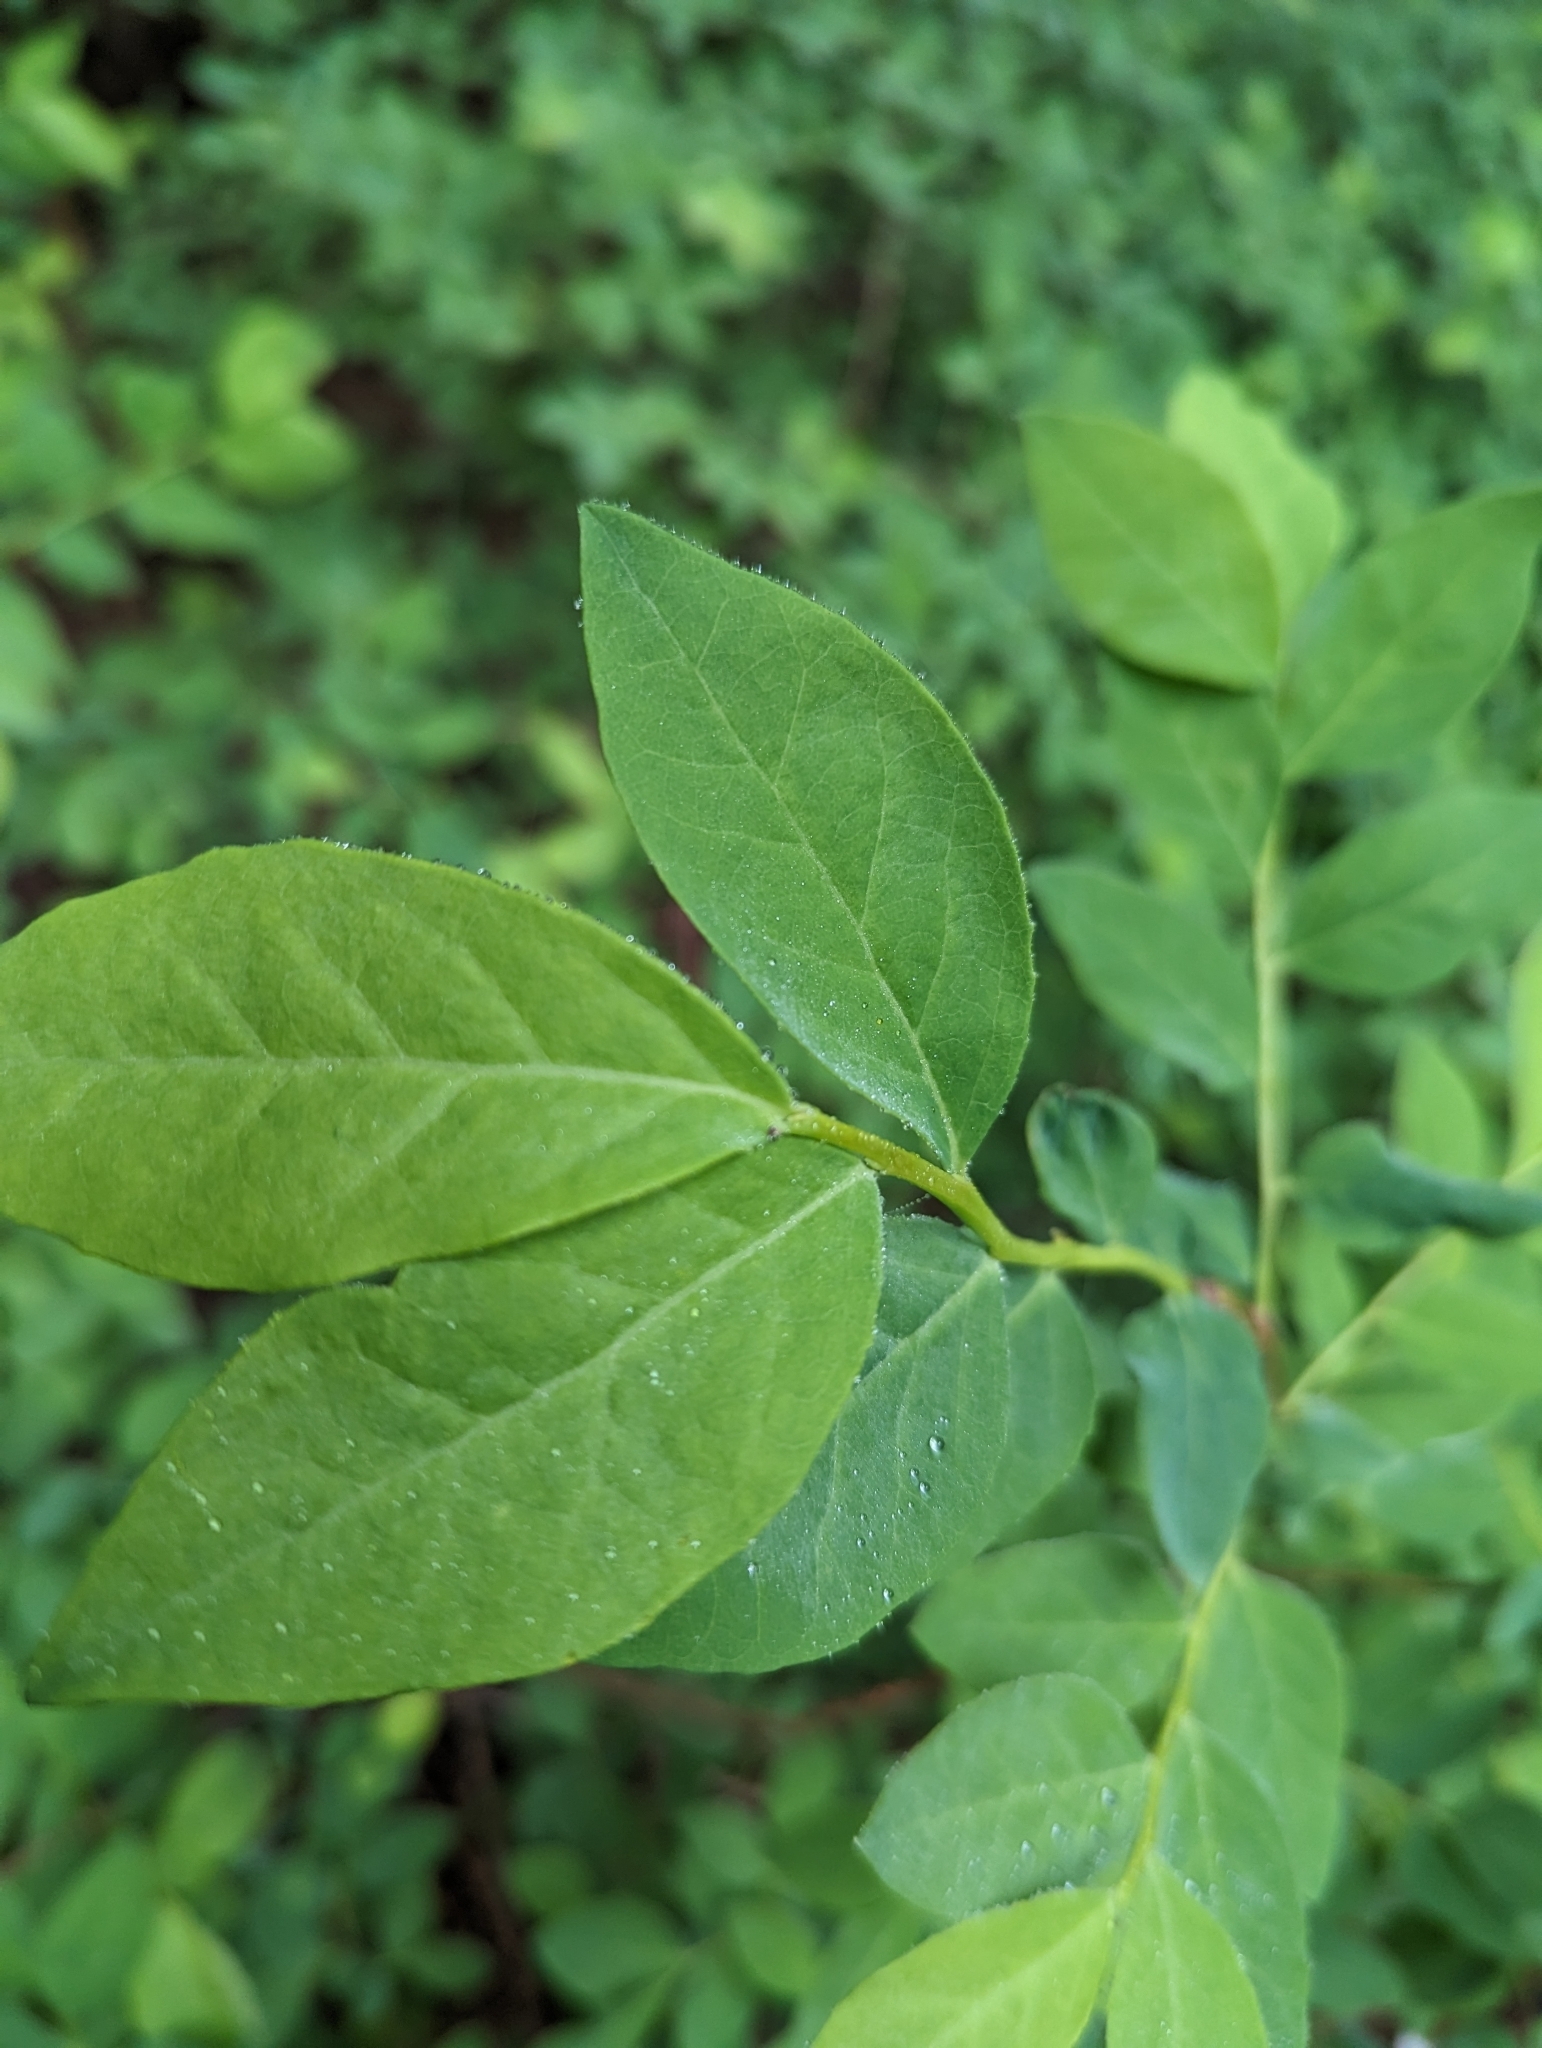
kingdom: Plantae
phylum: Tracheophyta
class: Magnoliopsida
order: Ericales
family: Ericaceae
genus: Vaccinium
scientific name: Vaccinium ovalifolium
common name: Early blueberry
